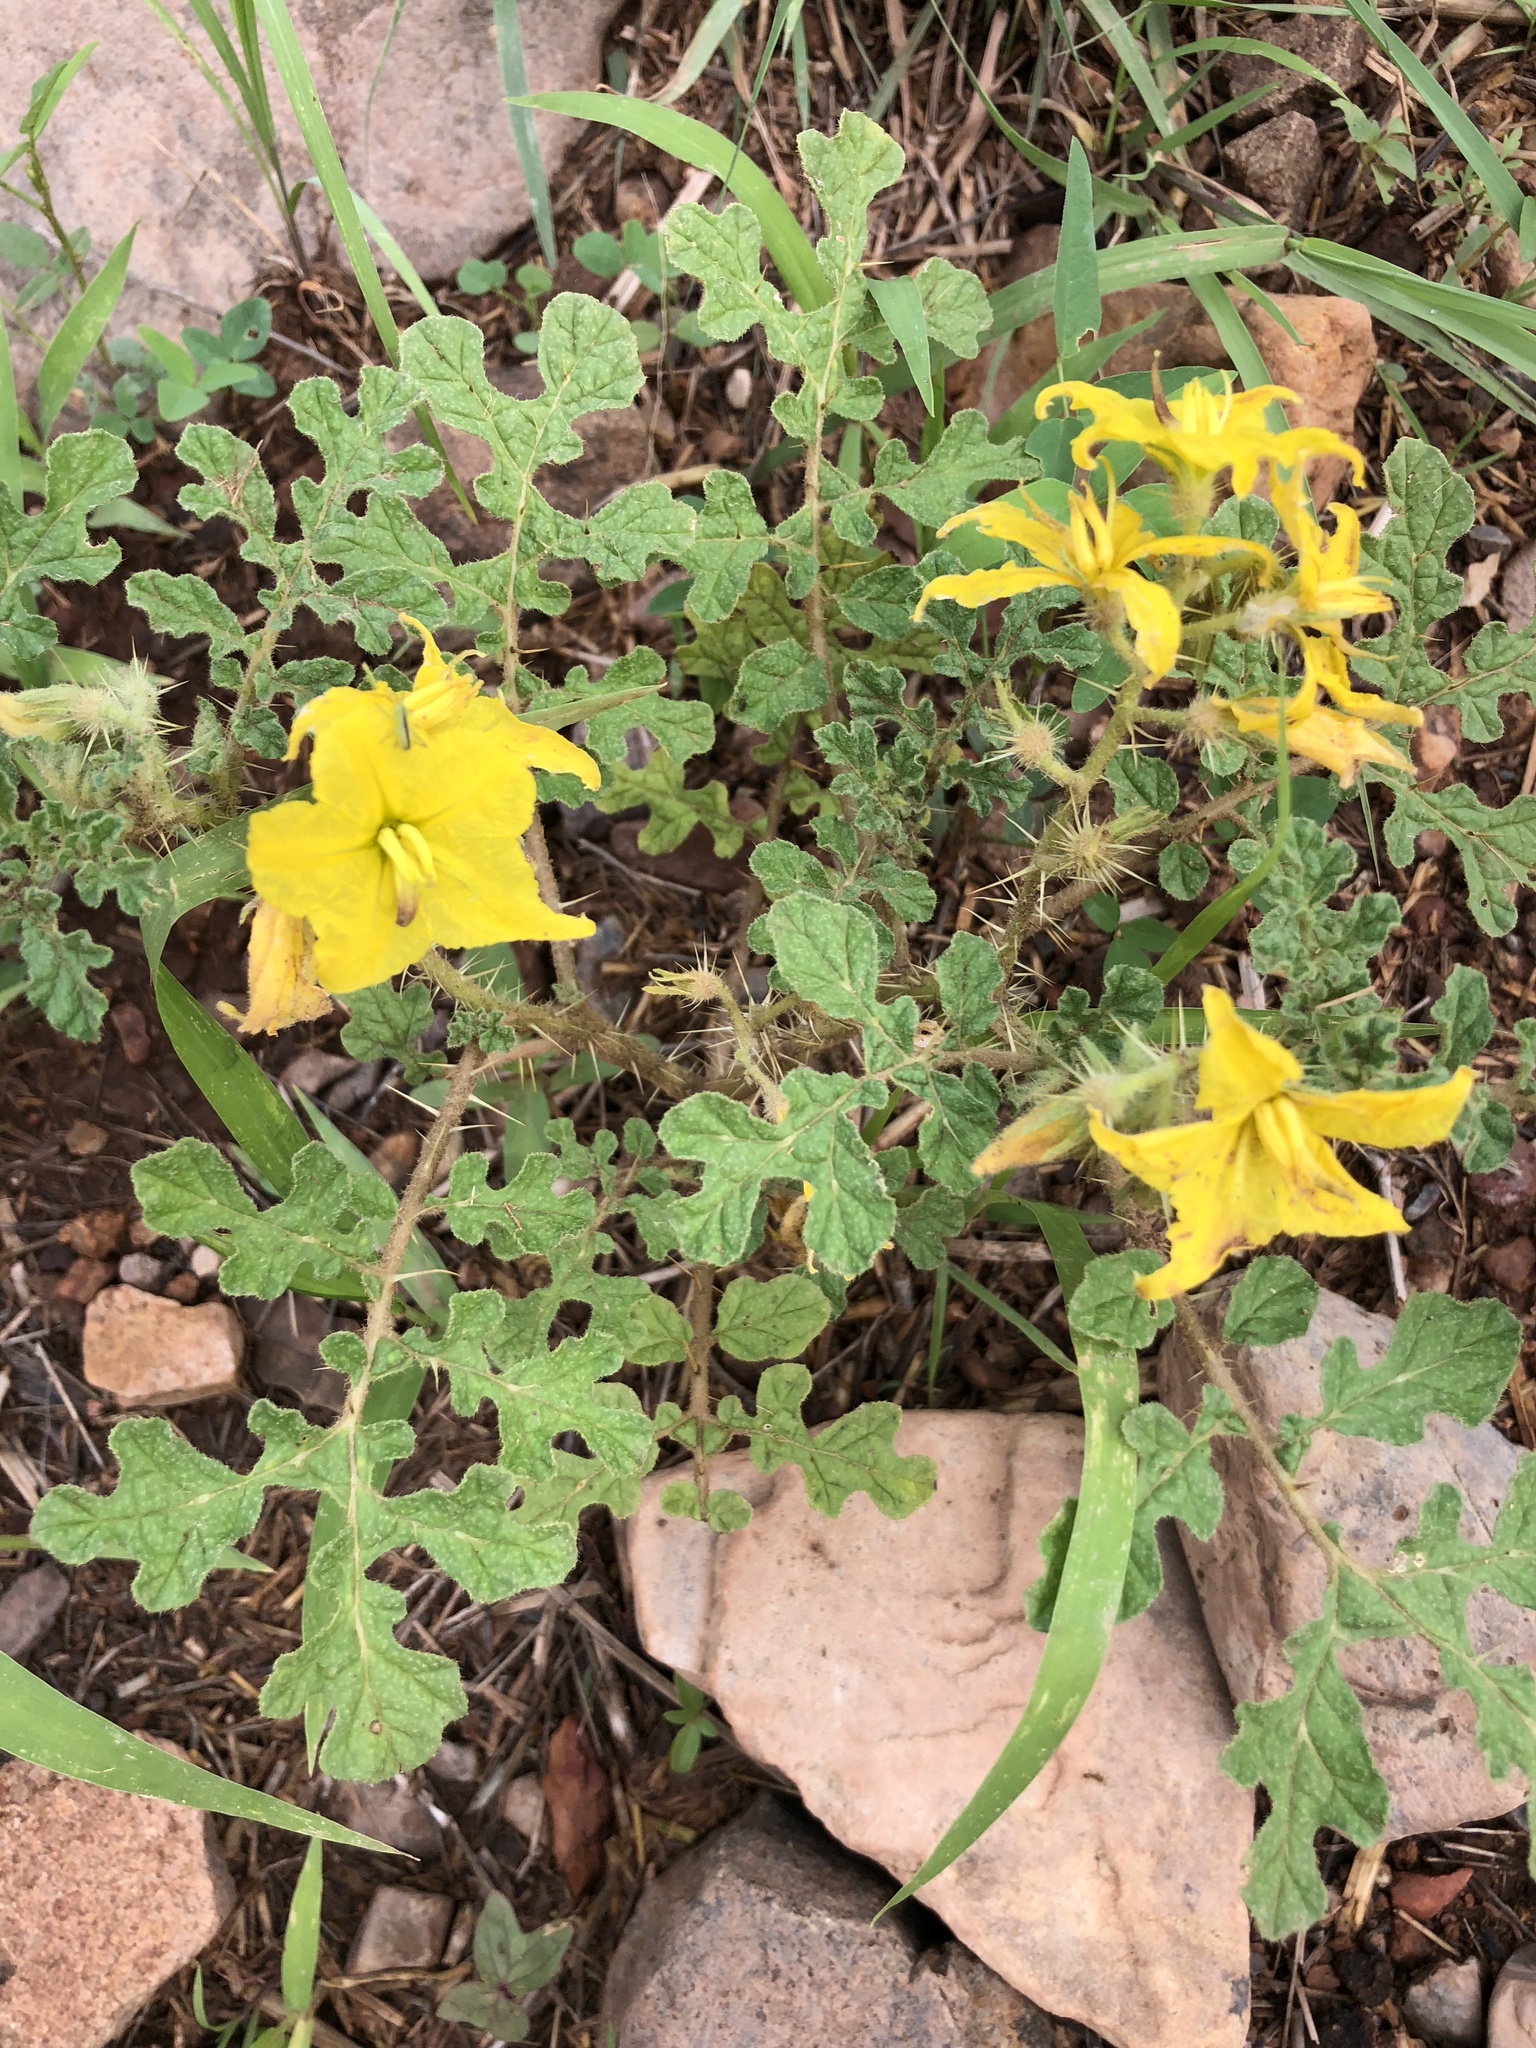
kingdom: Plantae
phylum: Tracheophyta
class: Magnoliopsida
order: Solanales
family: Solanaceae
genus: Solanum
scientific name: Solanum angustifolium
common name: Buffalobur nightshade
